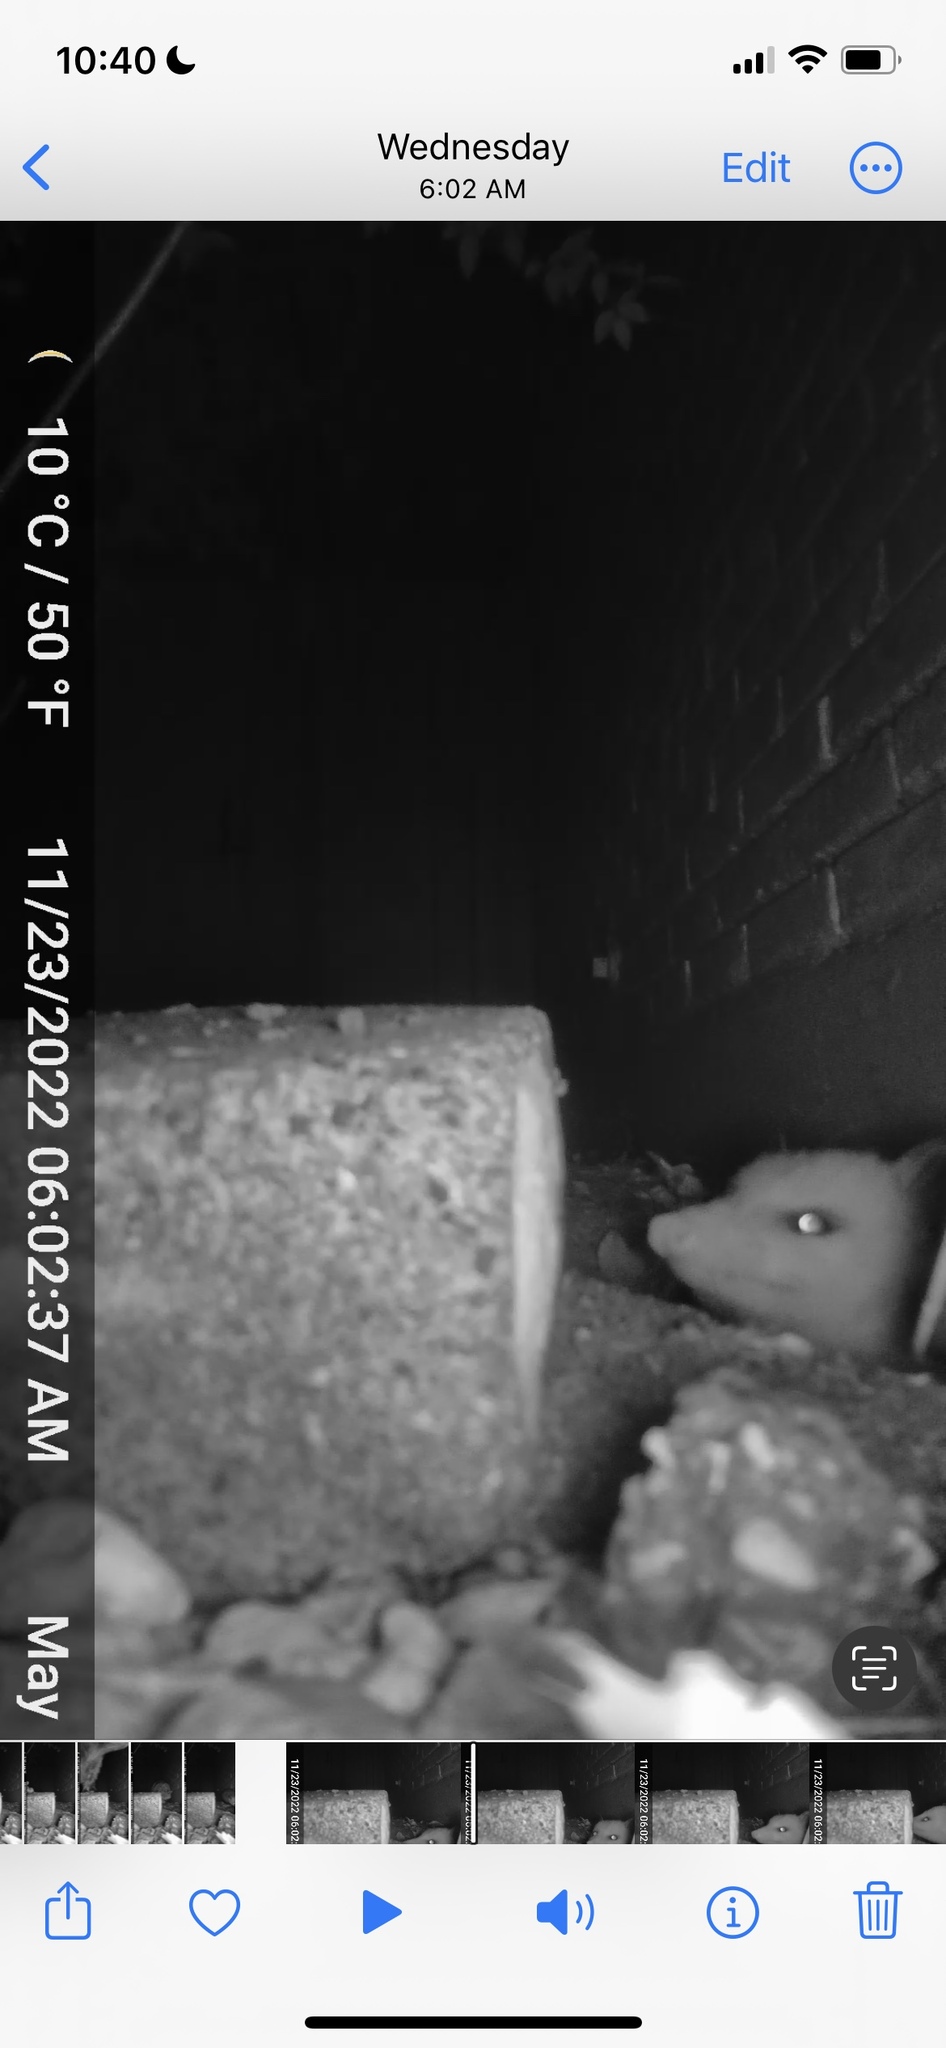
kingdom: Animalia
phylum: Chordata
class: Mammalia
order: Didelphimorphia
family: Didelphidae
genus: Didelphis
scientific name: Didelphis virginiana
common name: Virginia opossum
